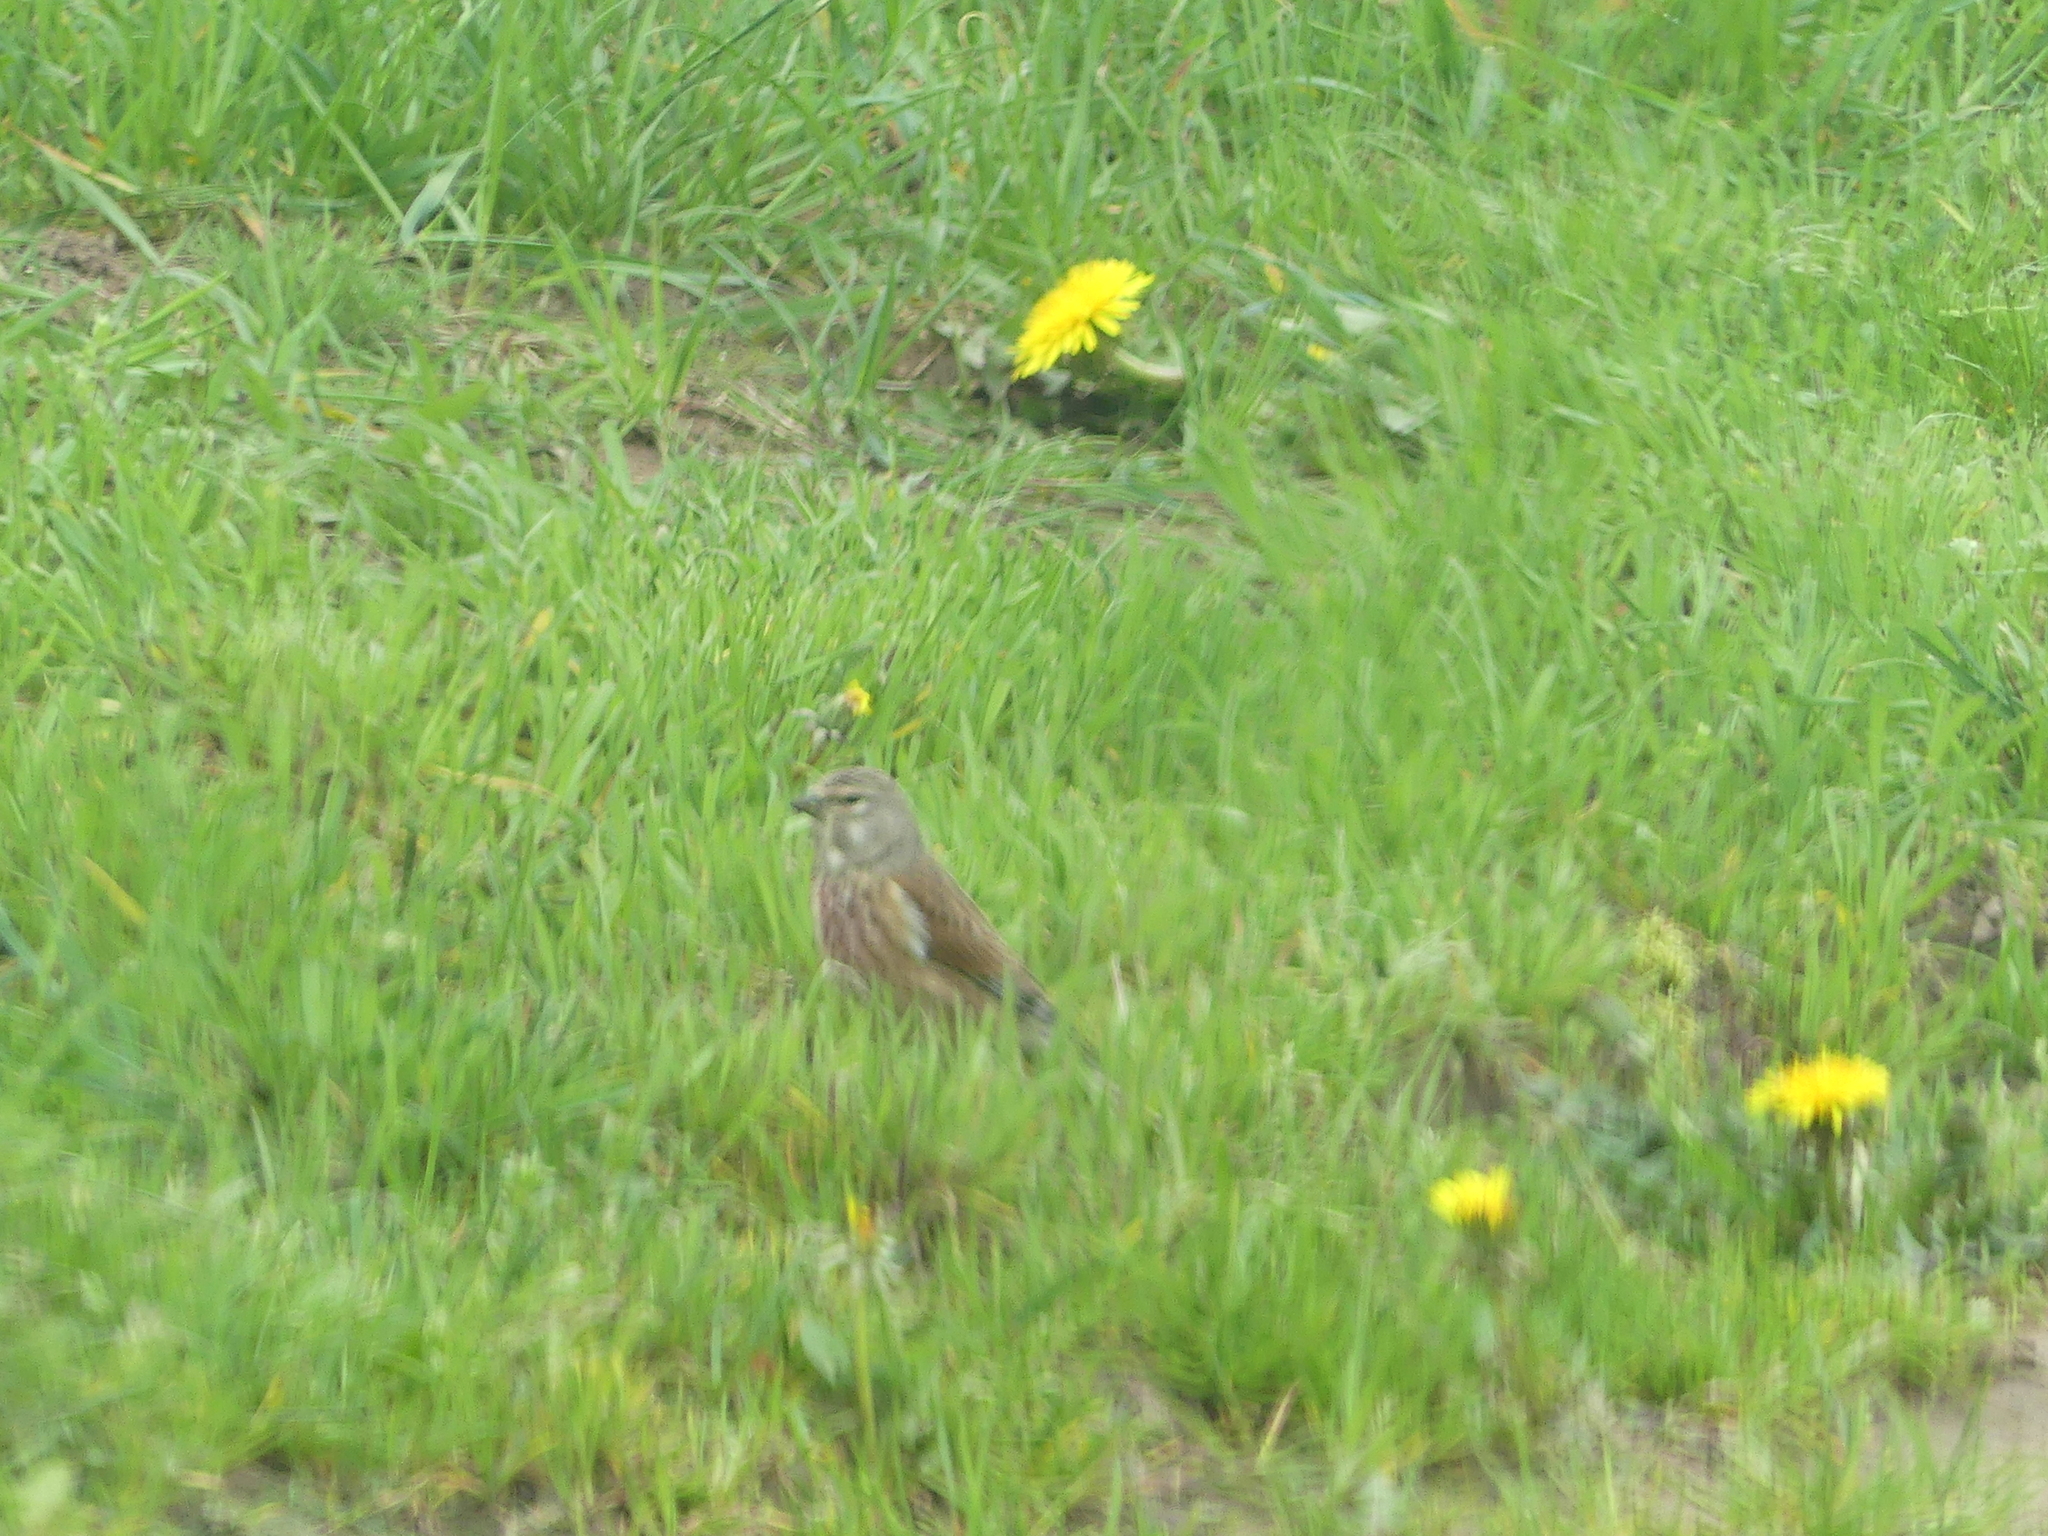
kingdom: Animalia
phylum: Chordata
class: Aves
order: Passeriformes
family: Fringillidae
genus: Linaria
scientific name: Linaria cannabina
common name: Common linnet
